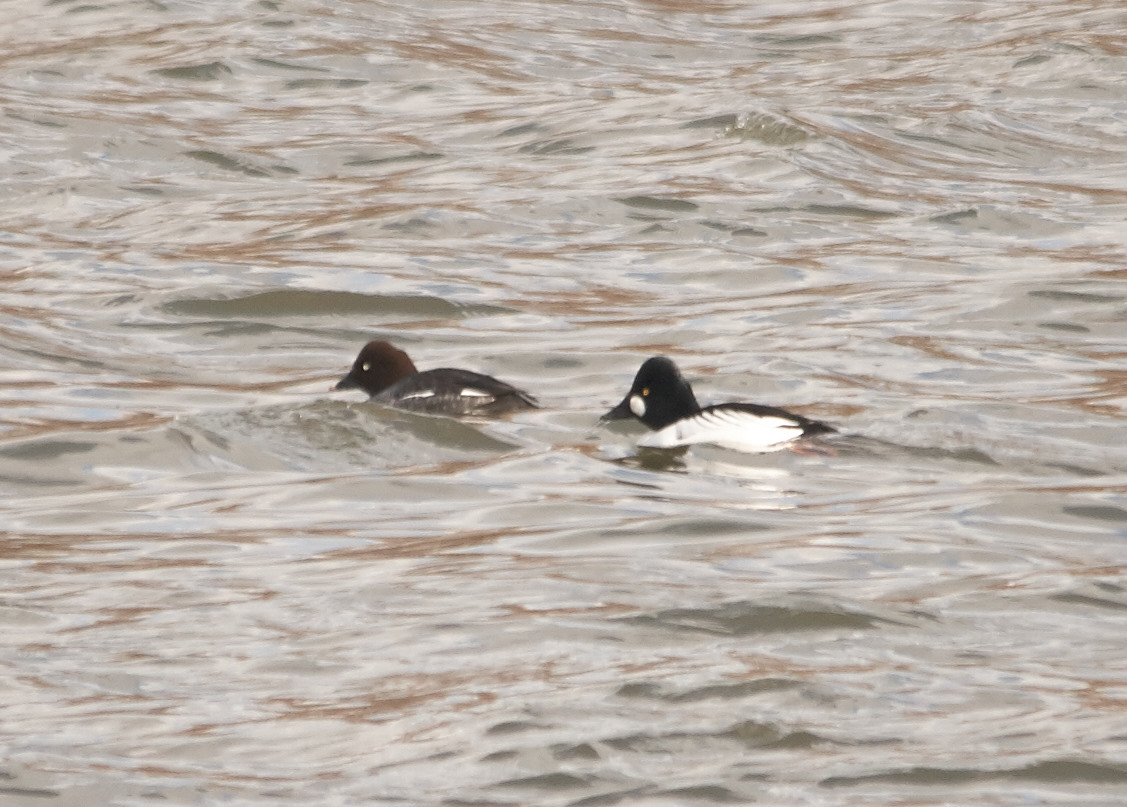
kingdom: Animalia
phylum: Chordata
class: Aves
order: Anseriformes
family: Anatidae
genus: Bucephala
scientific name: Bucephala clangula
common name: Common goldeneye
